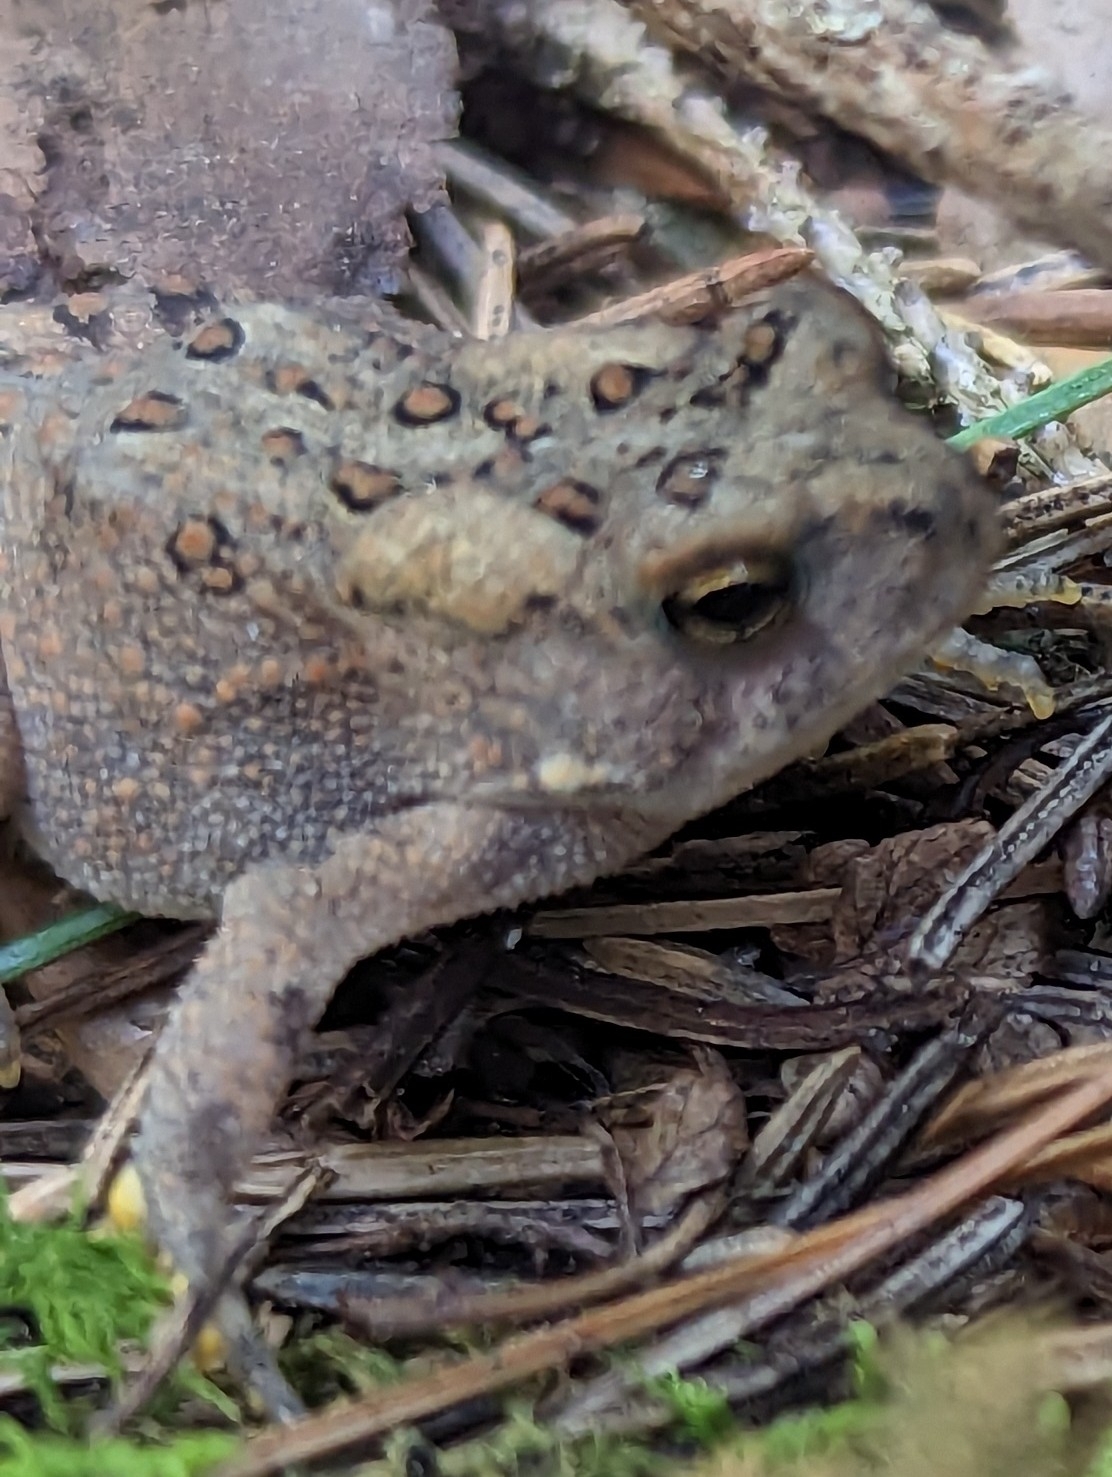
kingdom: Animalia
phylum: Chordata
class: Amphibia
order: Anura
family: Bufonidae
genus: Anaxyrus
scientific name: Anaxyrus americanus
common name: American toad
